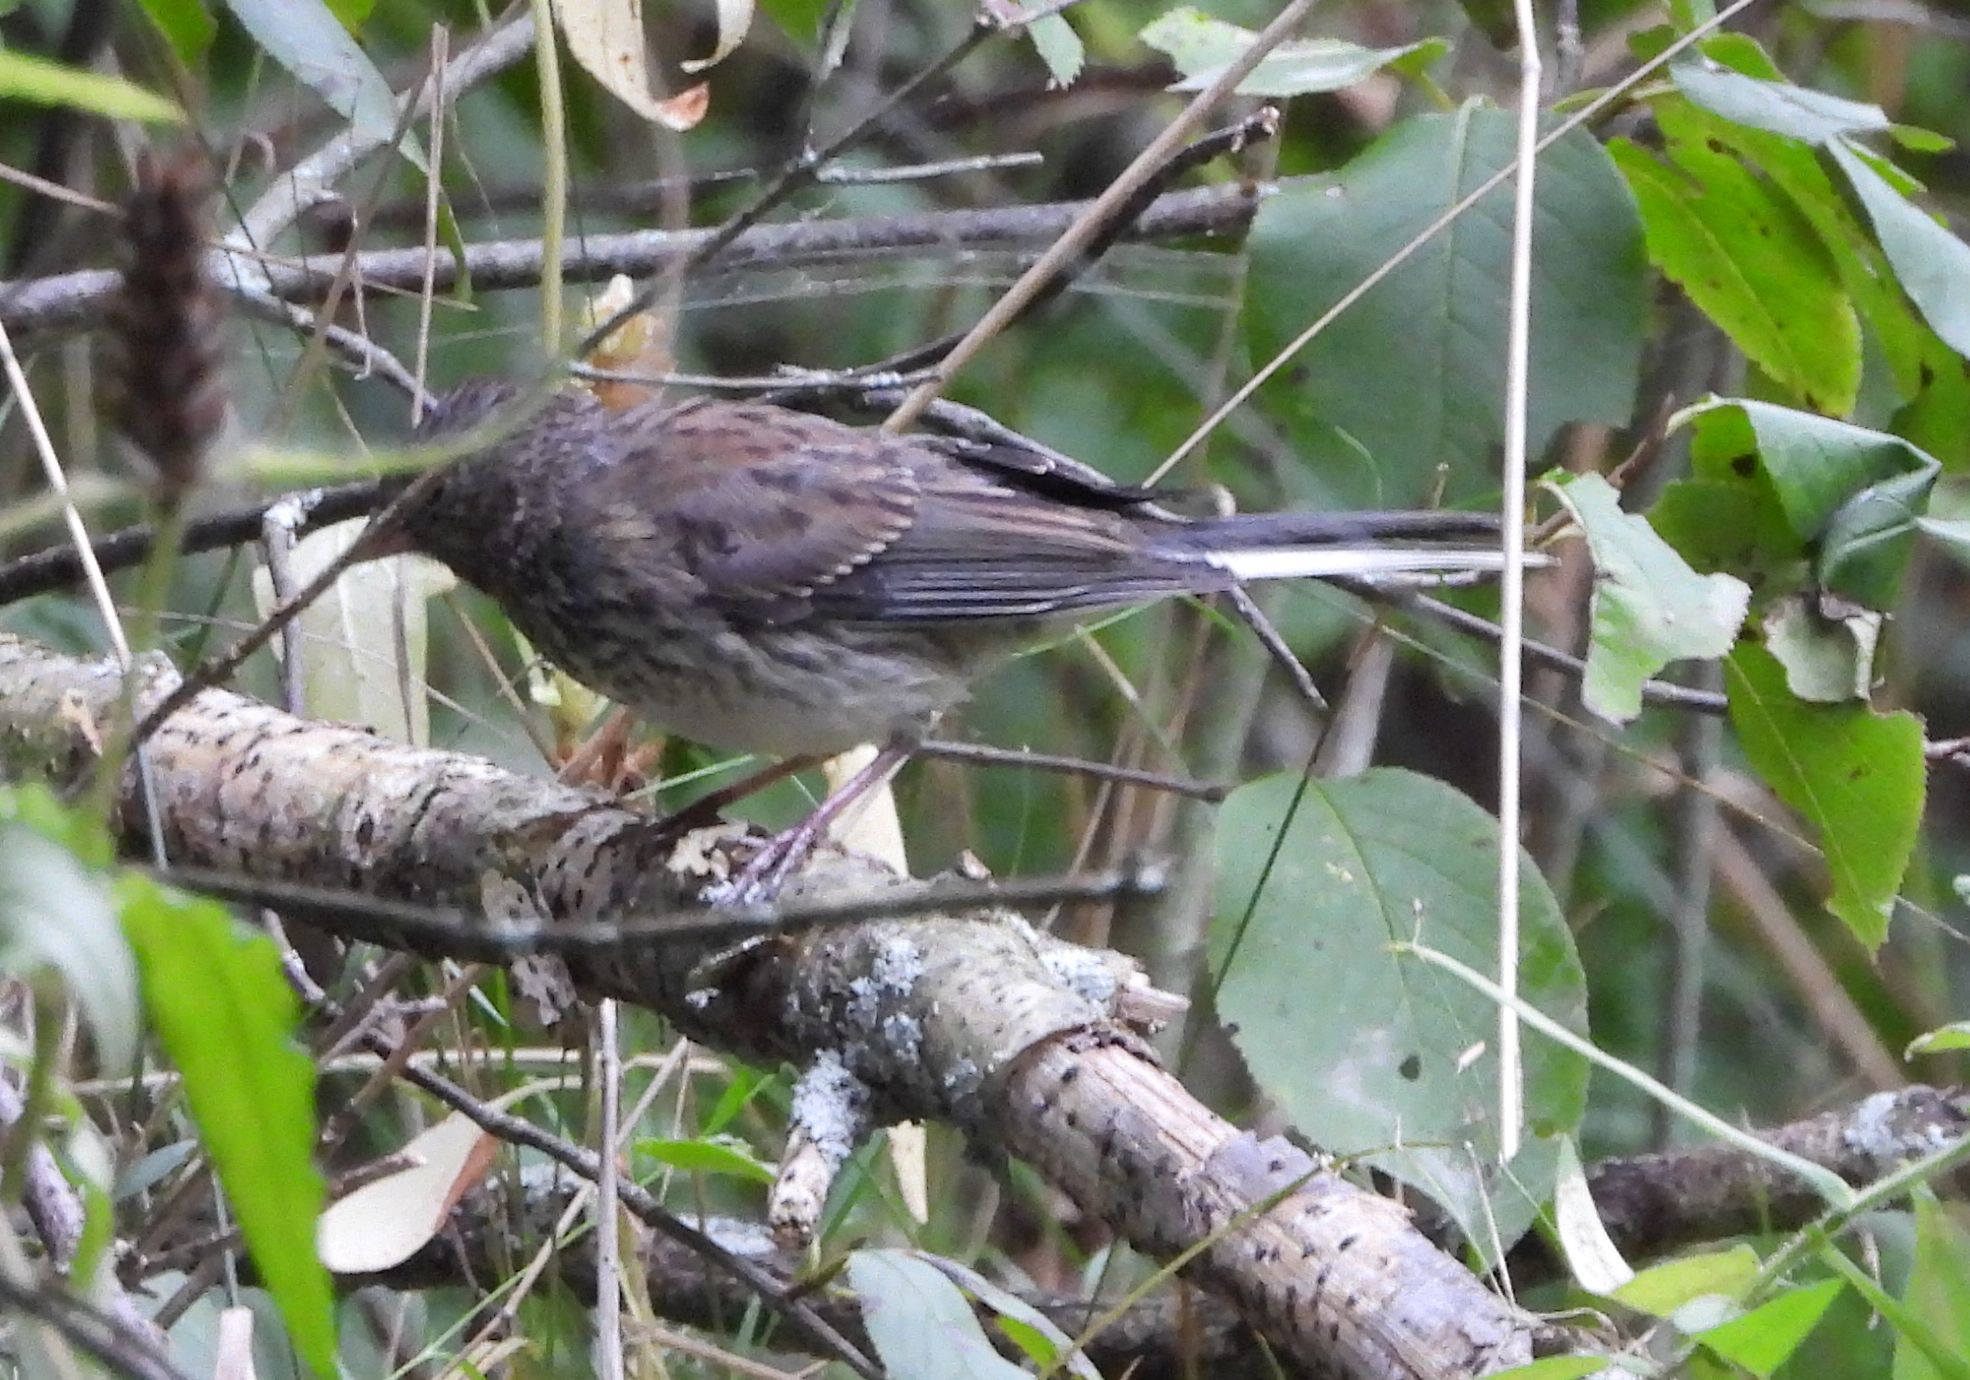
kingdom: Animalia
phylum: Chordata
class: Aves
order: Passeriformes
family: Passerellidae
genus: Junco
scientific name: Junco hyemalis
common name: Dark-eyed junco
